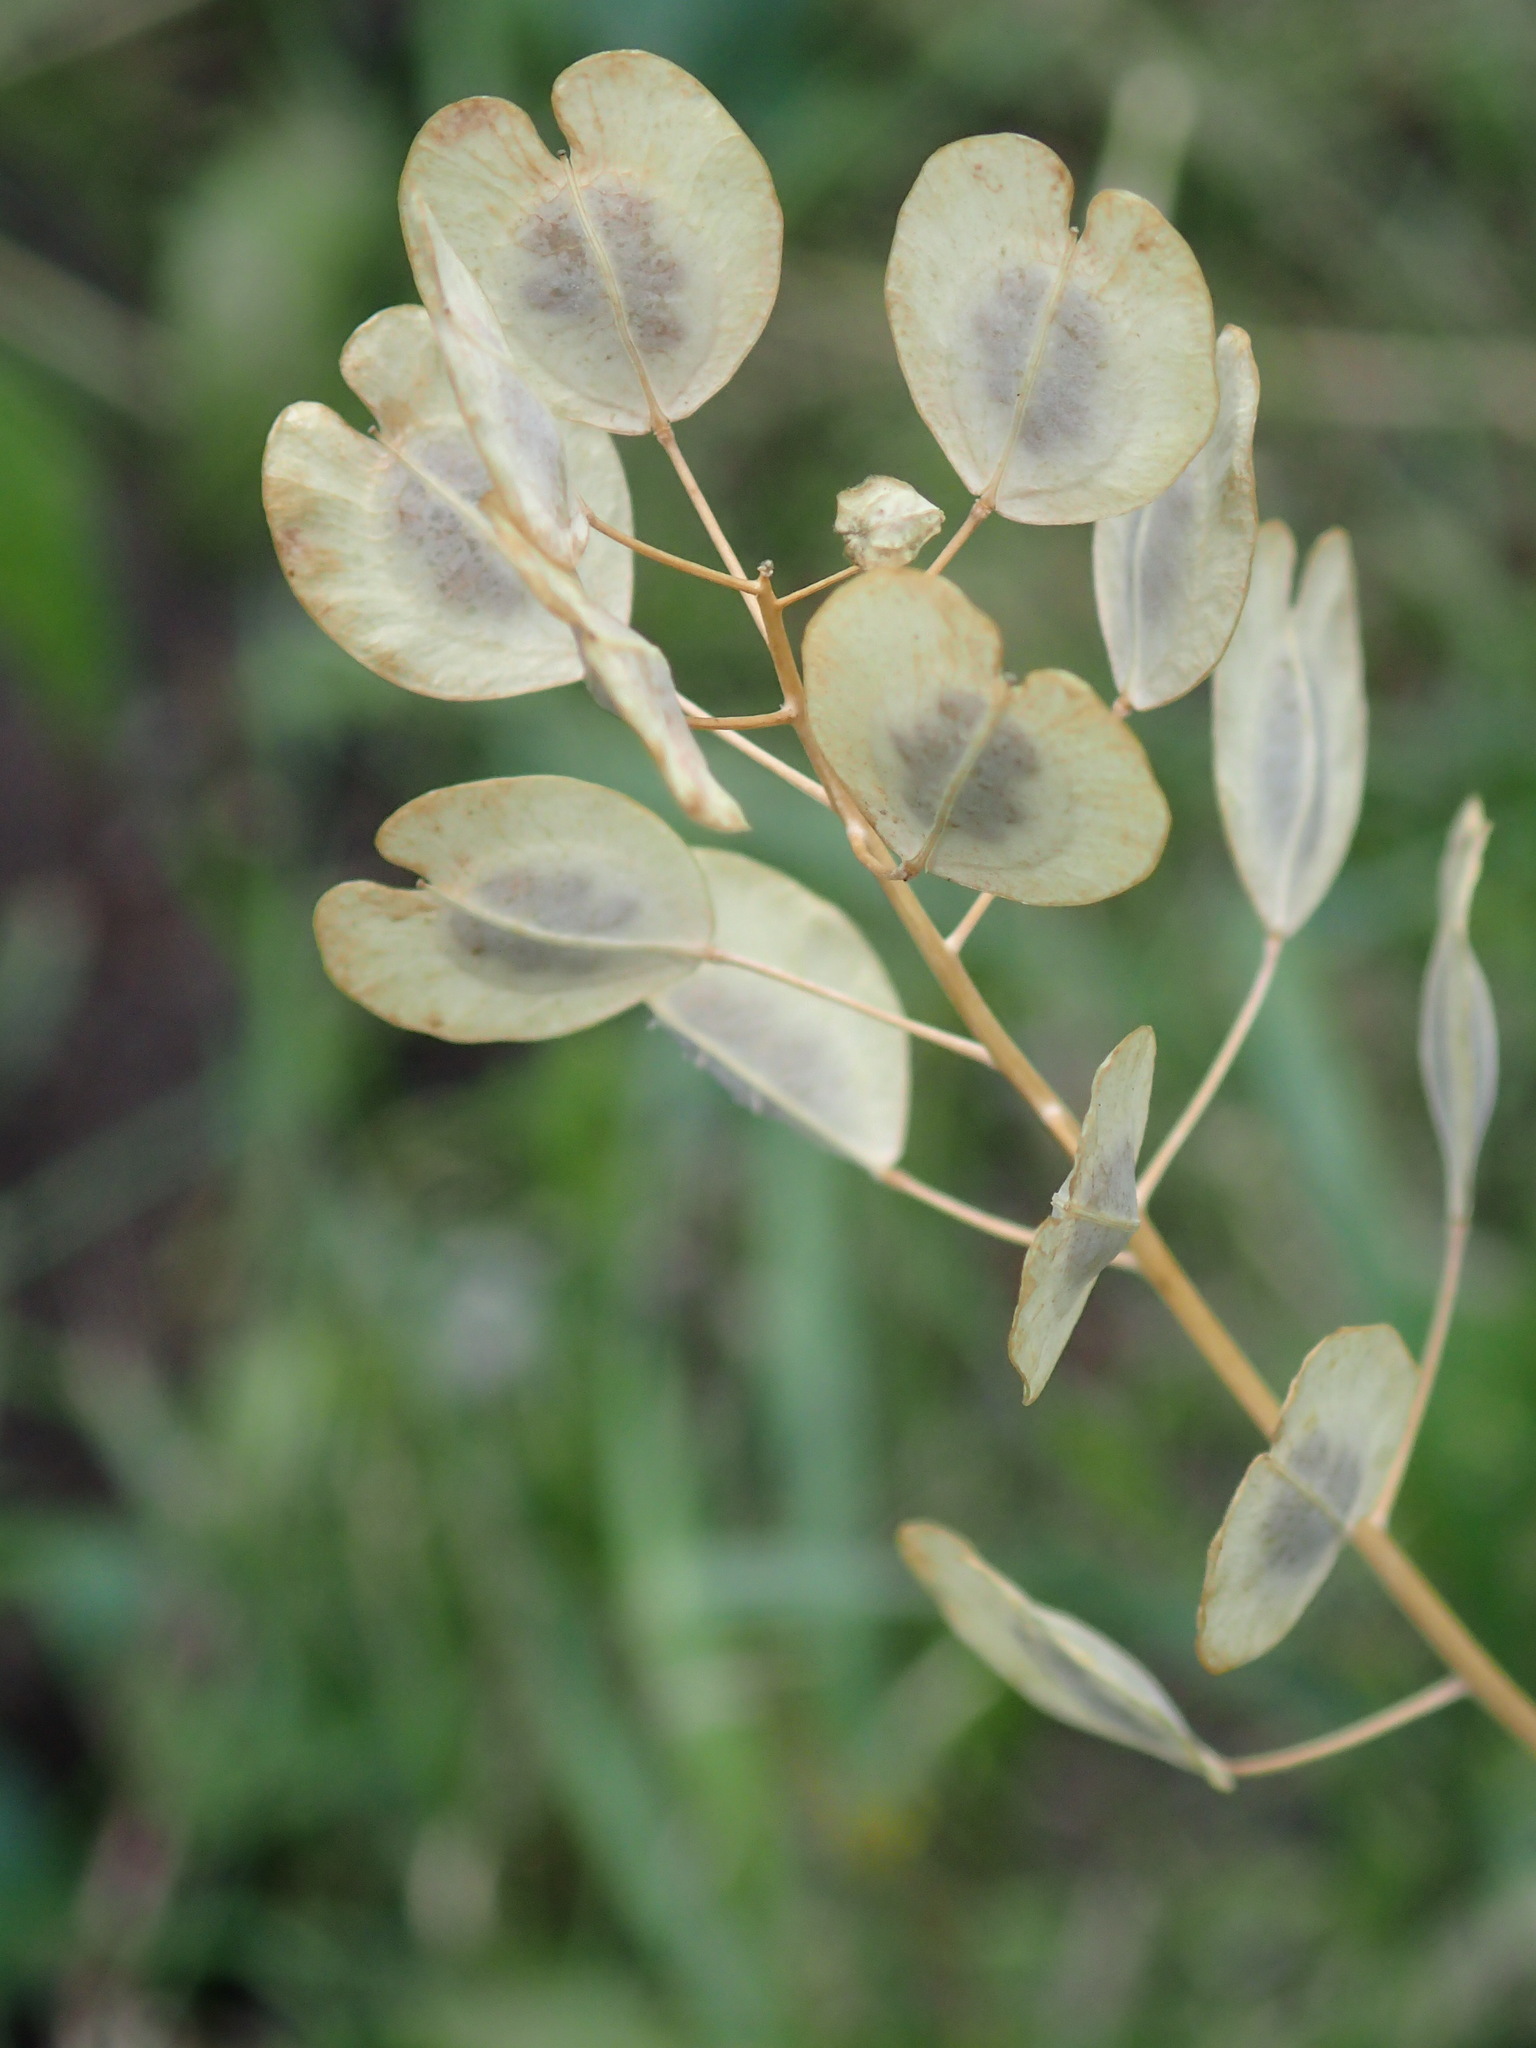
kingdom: Plantae
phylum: Tracheophyta
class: Magnoliopsida
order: Brassicales
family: Brassicaceae
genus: Thlaspi
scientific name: Thlaspi arvense
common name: Field pennycress
